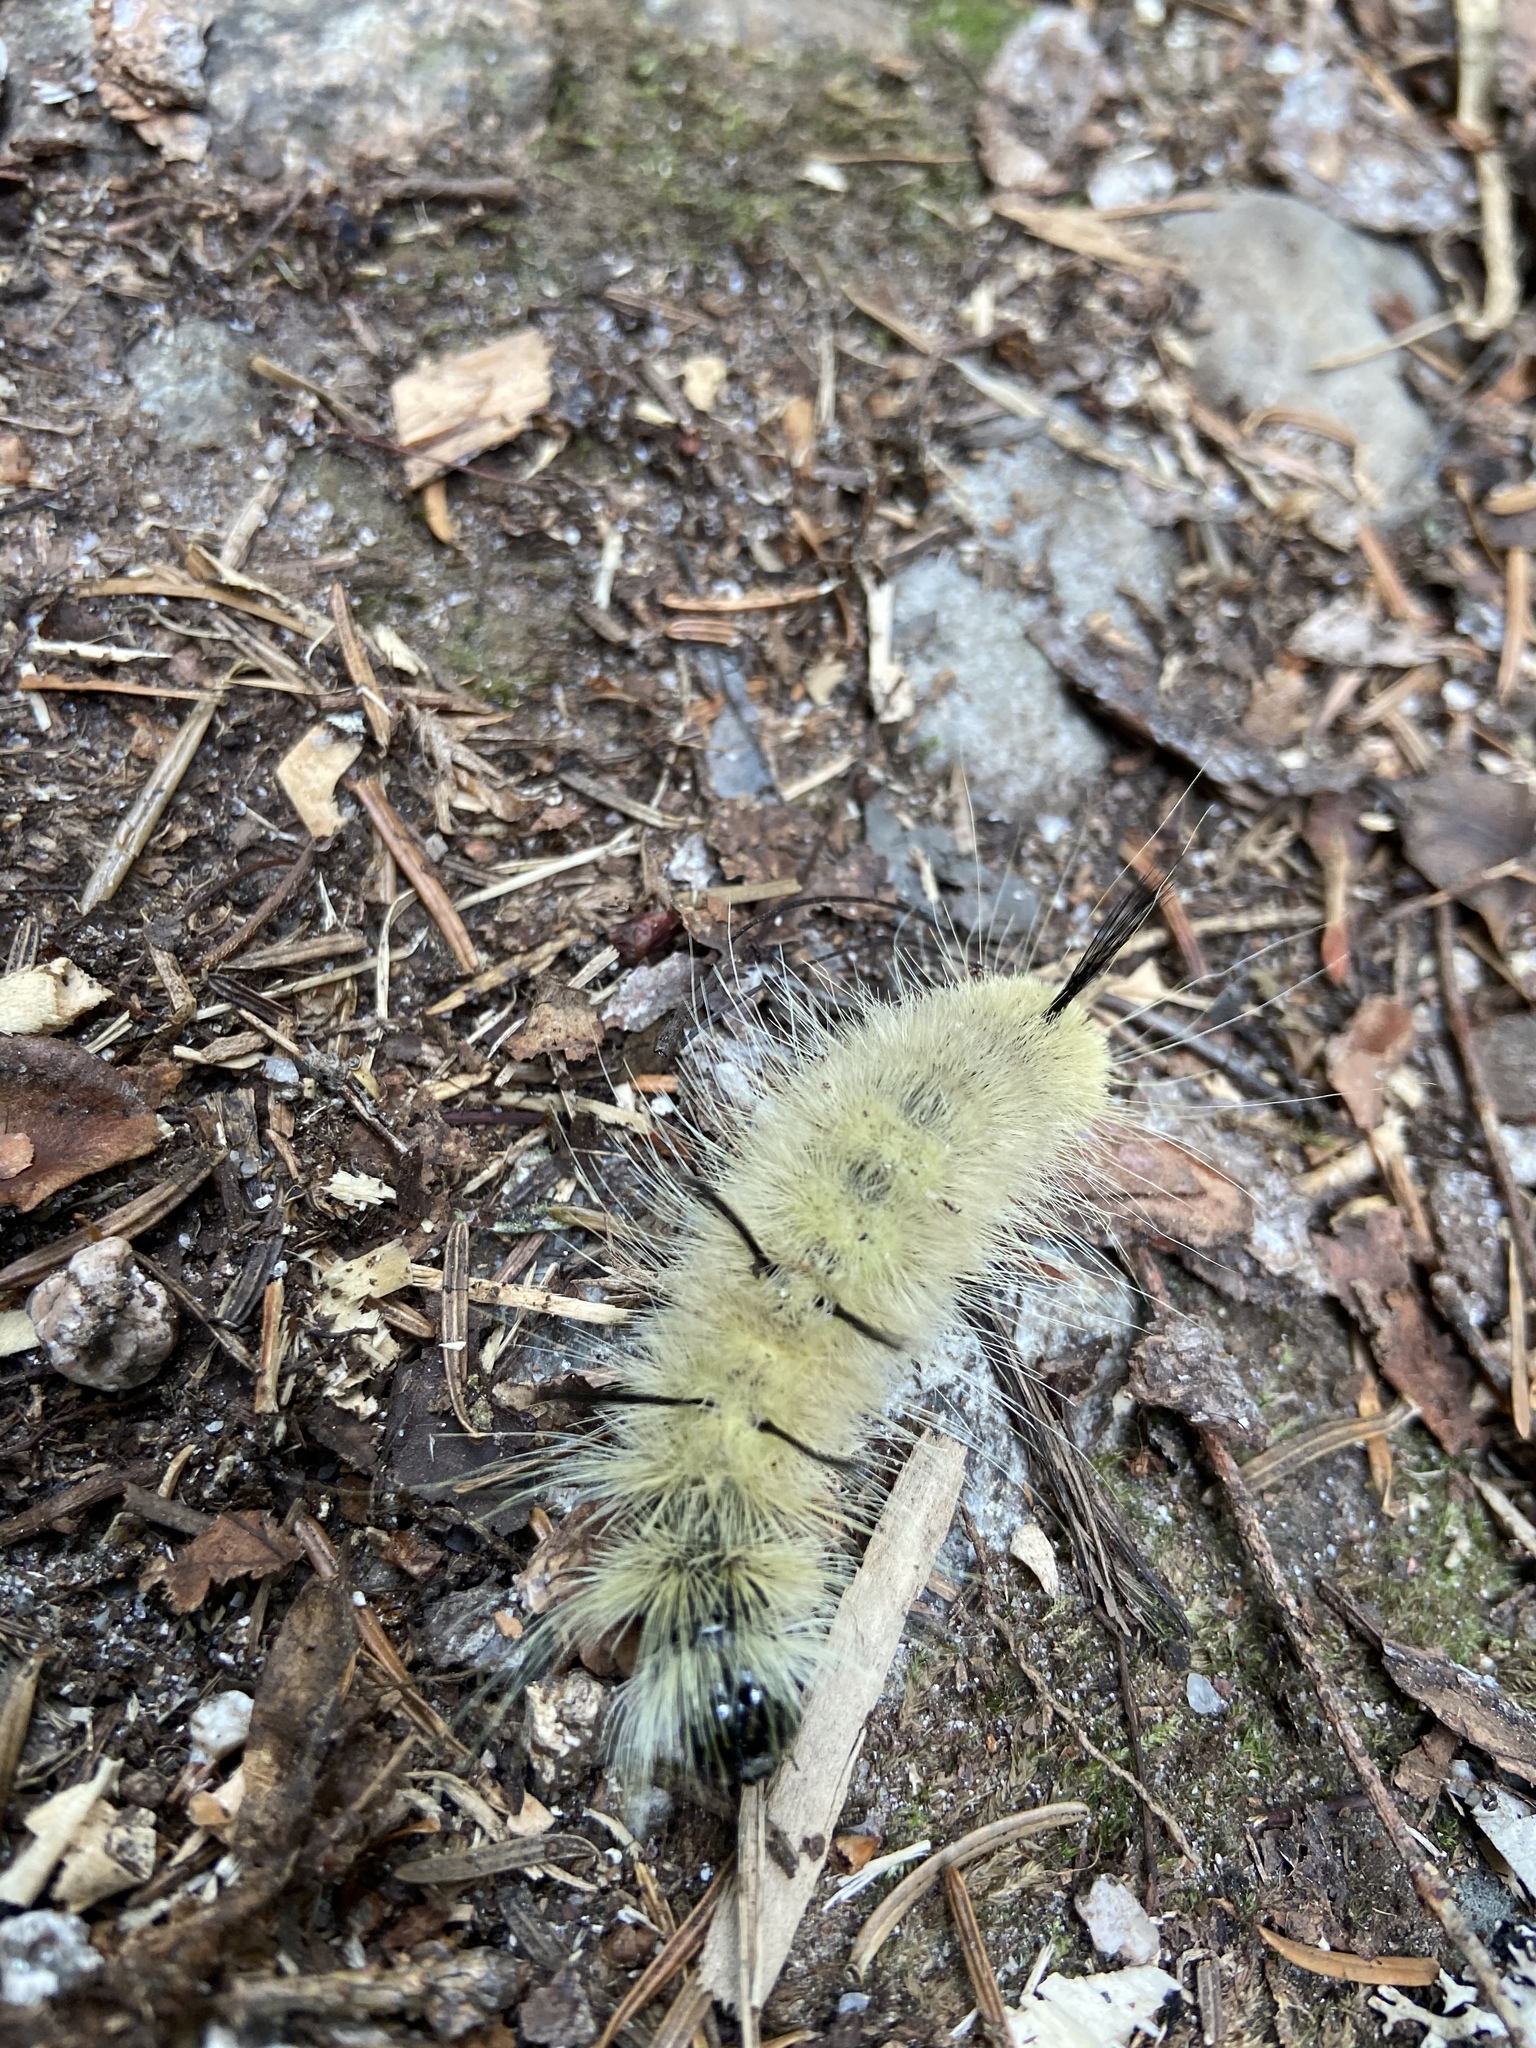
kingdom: Animalia
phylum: Arthropoda
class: Insecta
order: Lepidoptera
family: Noctuidae
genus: Acronicta
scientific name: Acronicta americana
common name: American dagger
